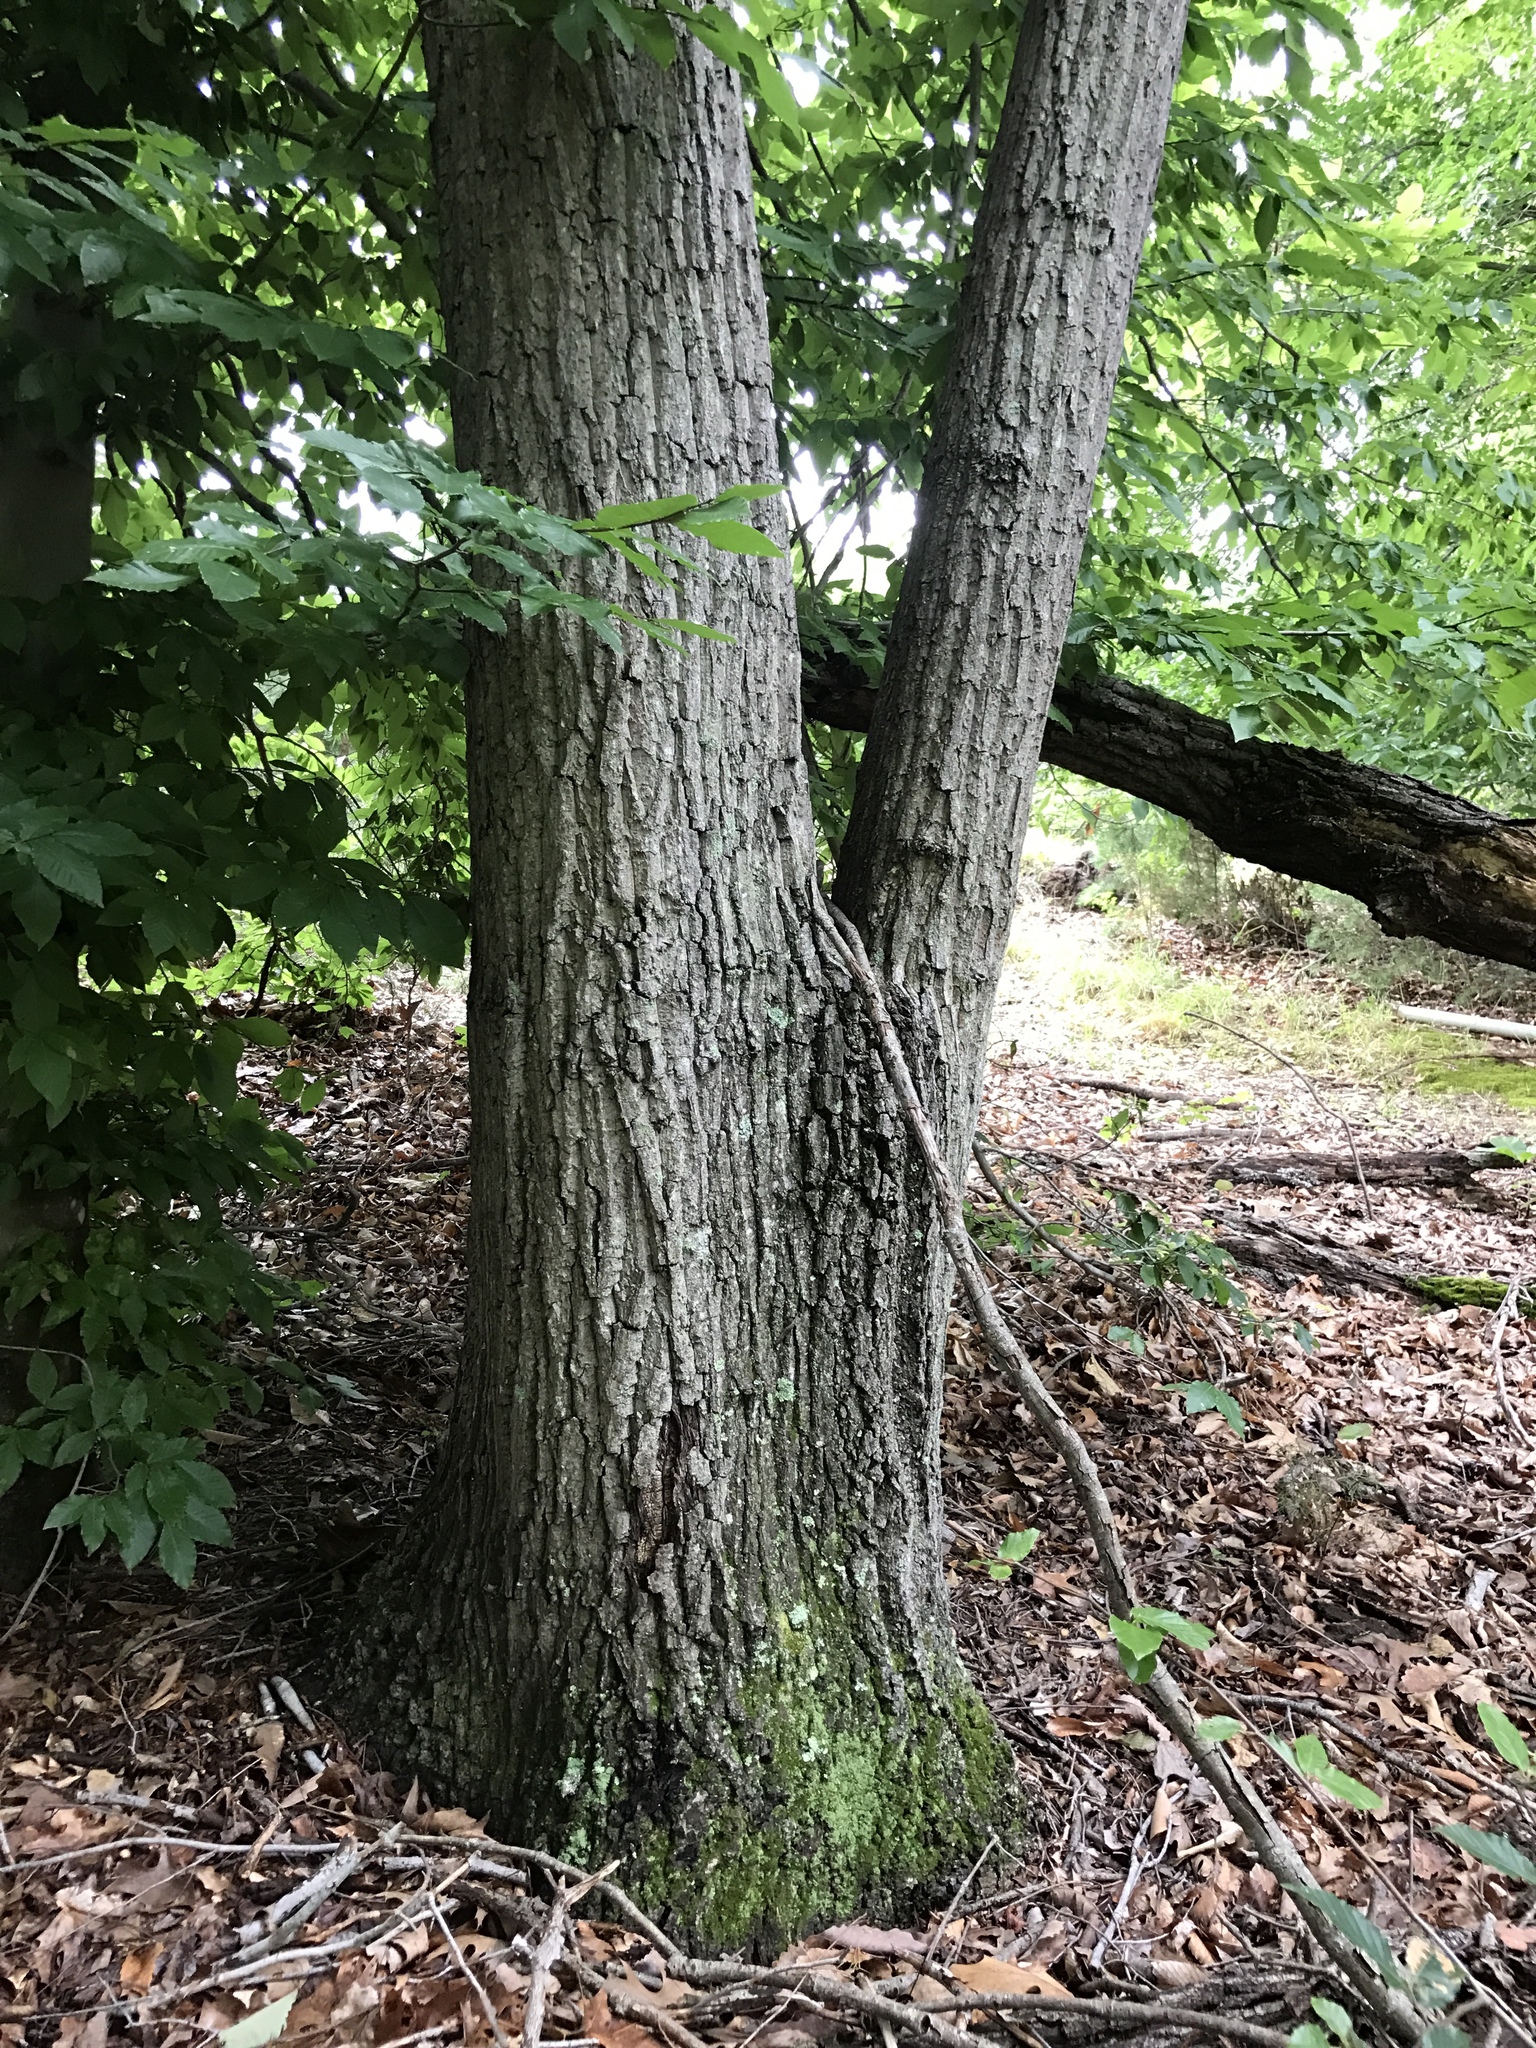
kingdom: Plantae
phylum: Tracheophyta
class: Magnoliopsida
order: Fagales
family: Fagaceae
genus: Quercus
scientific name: Quercus montana
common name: Chestnut oak
